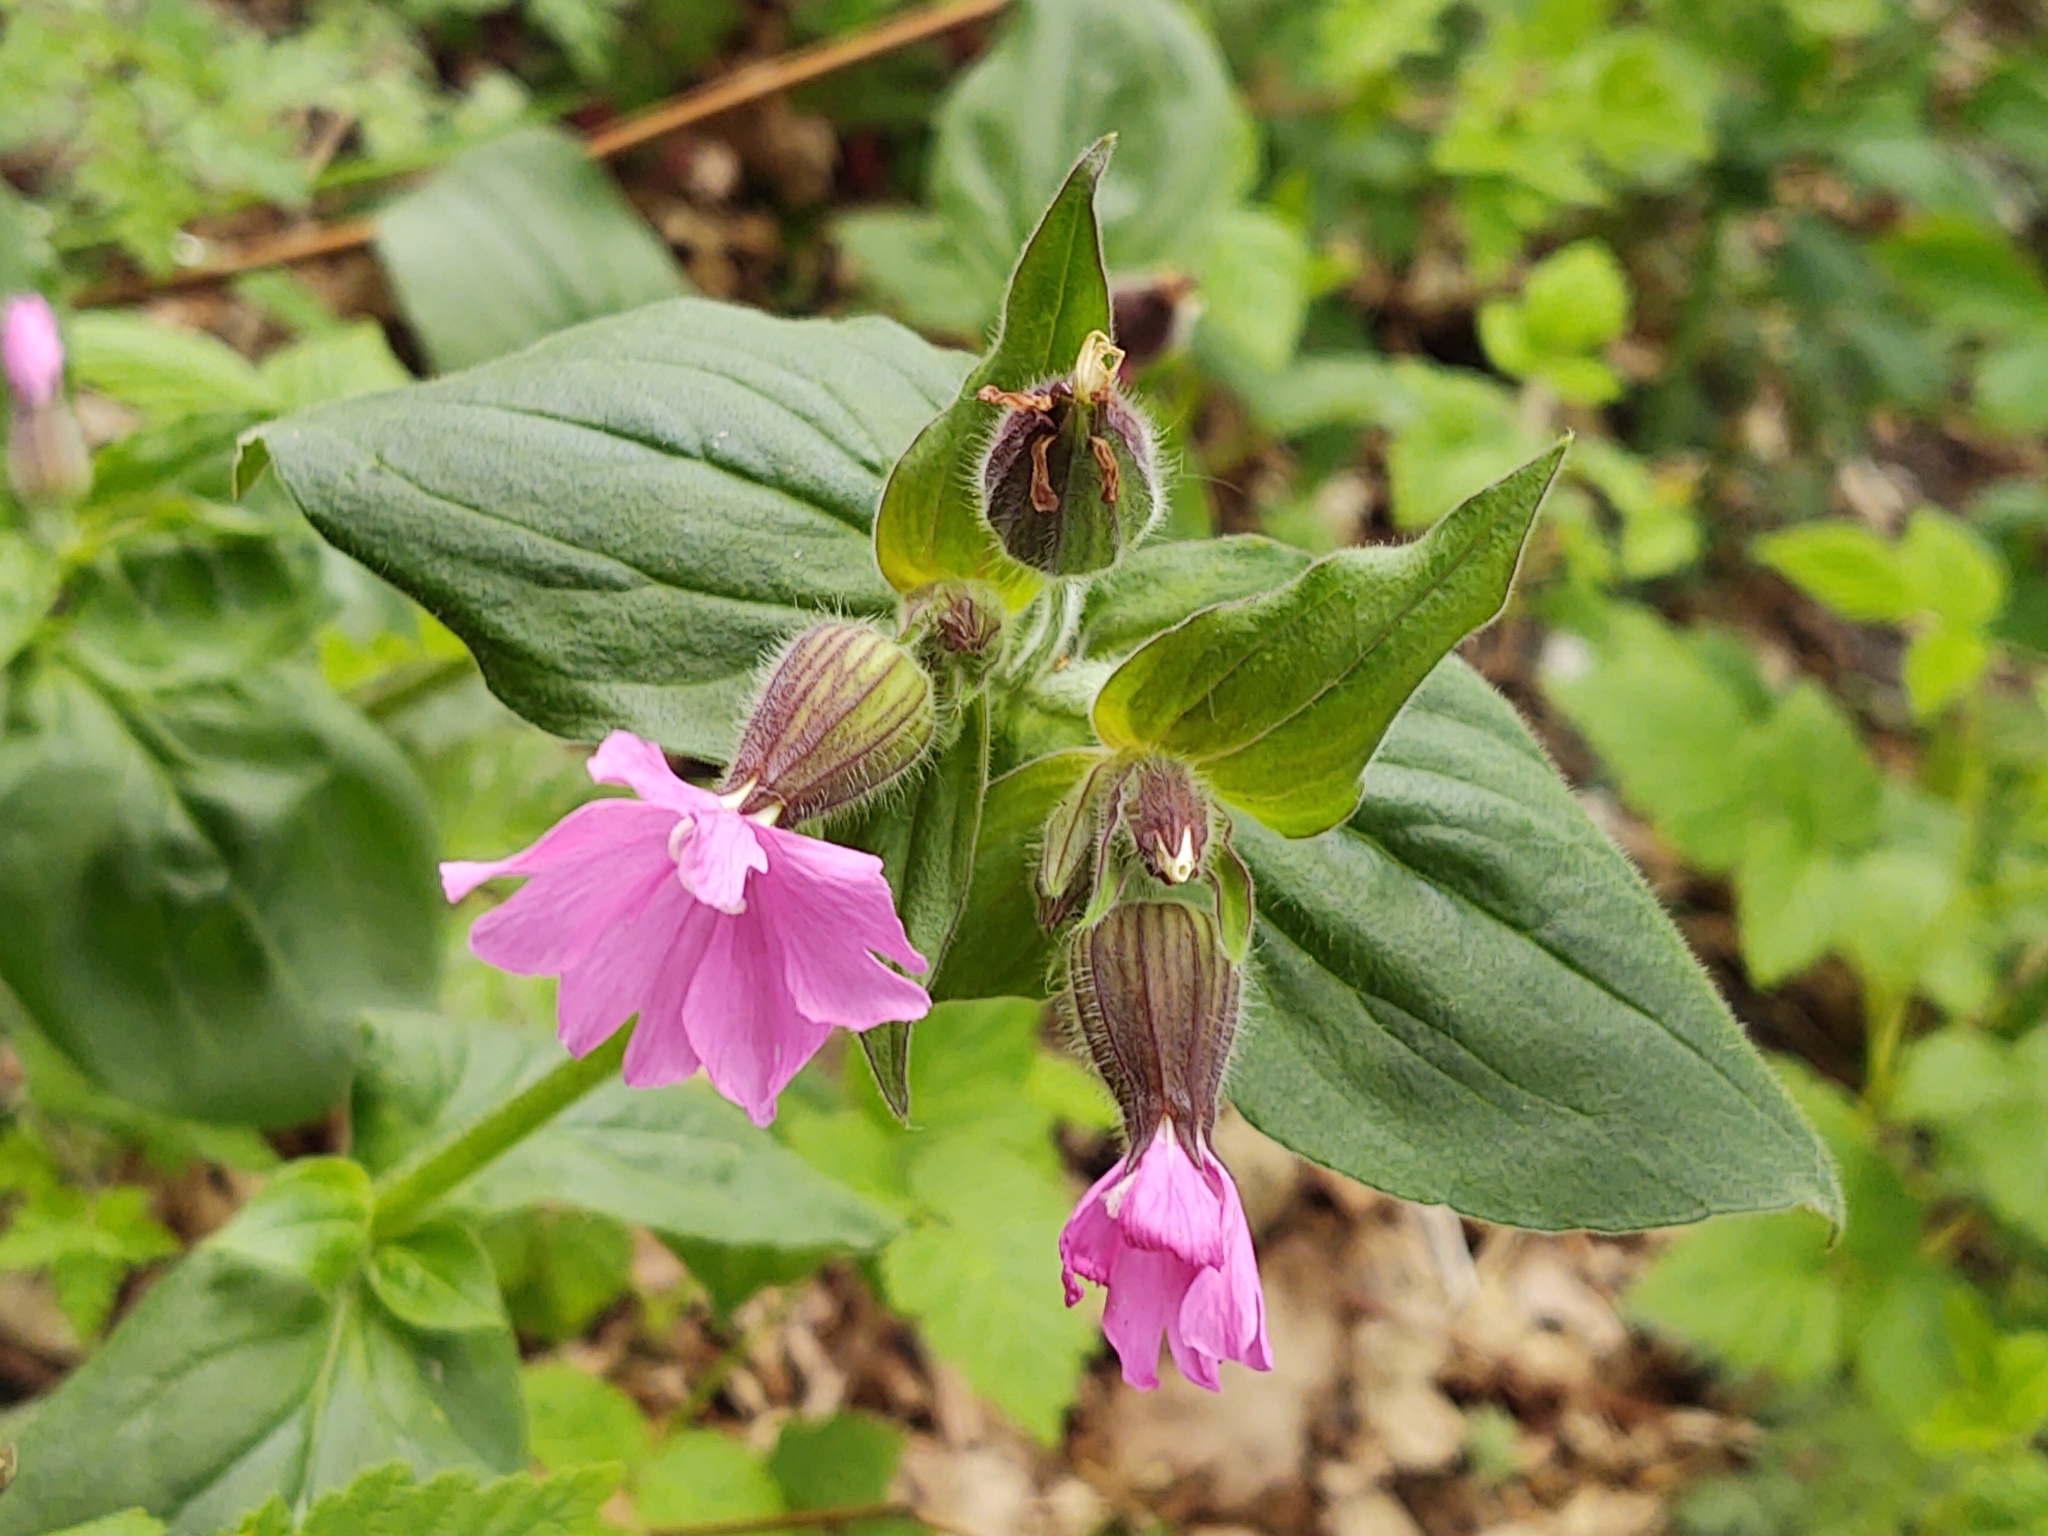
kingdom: Plantae
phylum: Tracheophyta
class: Magnoliopsida
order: Caryophyllales
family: Caryophyllaceae
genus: Silene
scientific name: Silene dioica
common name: Red campion
